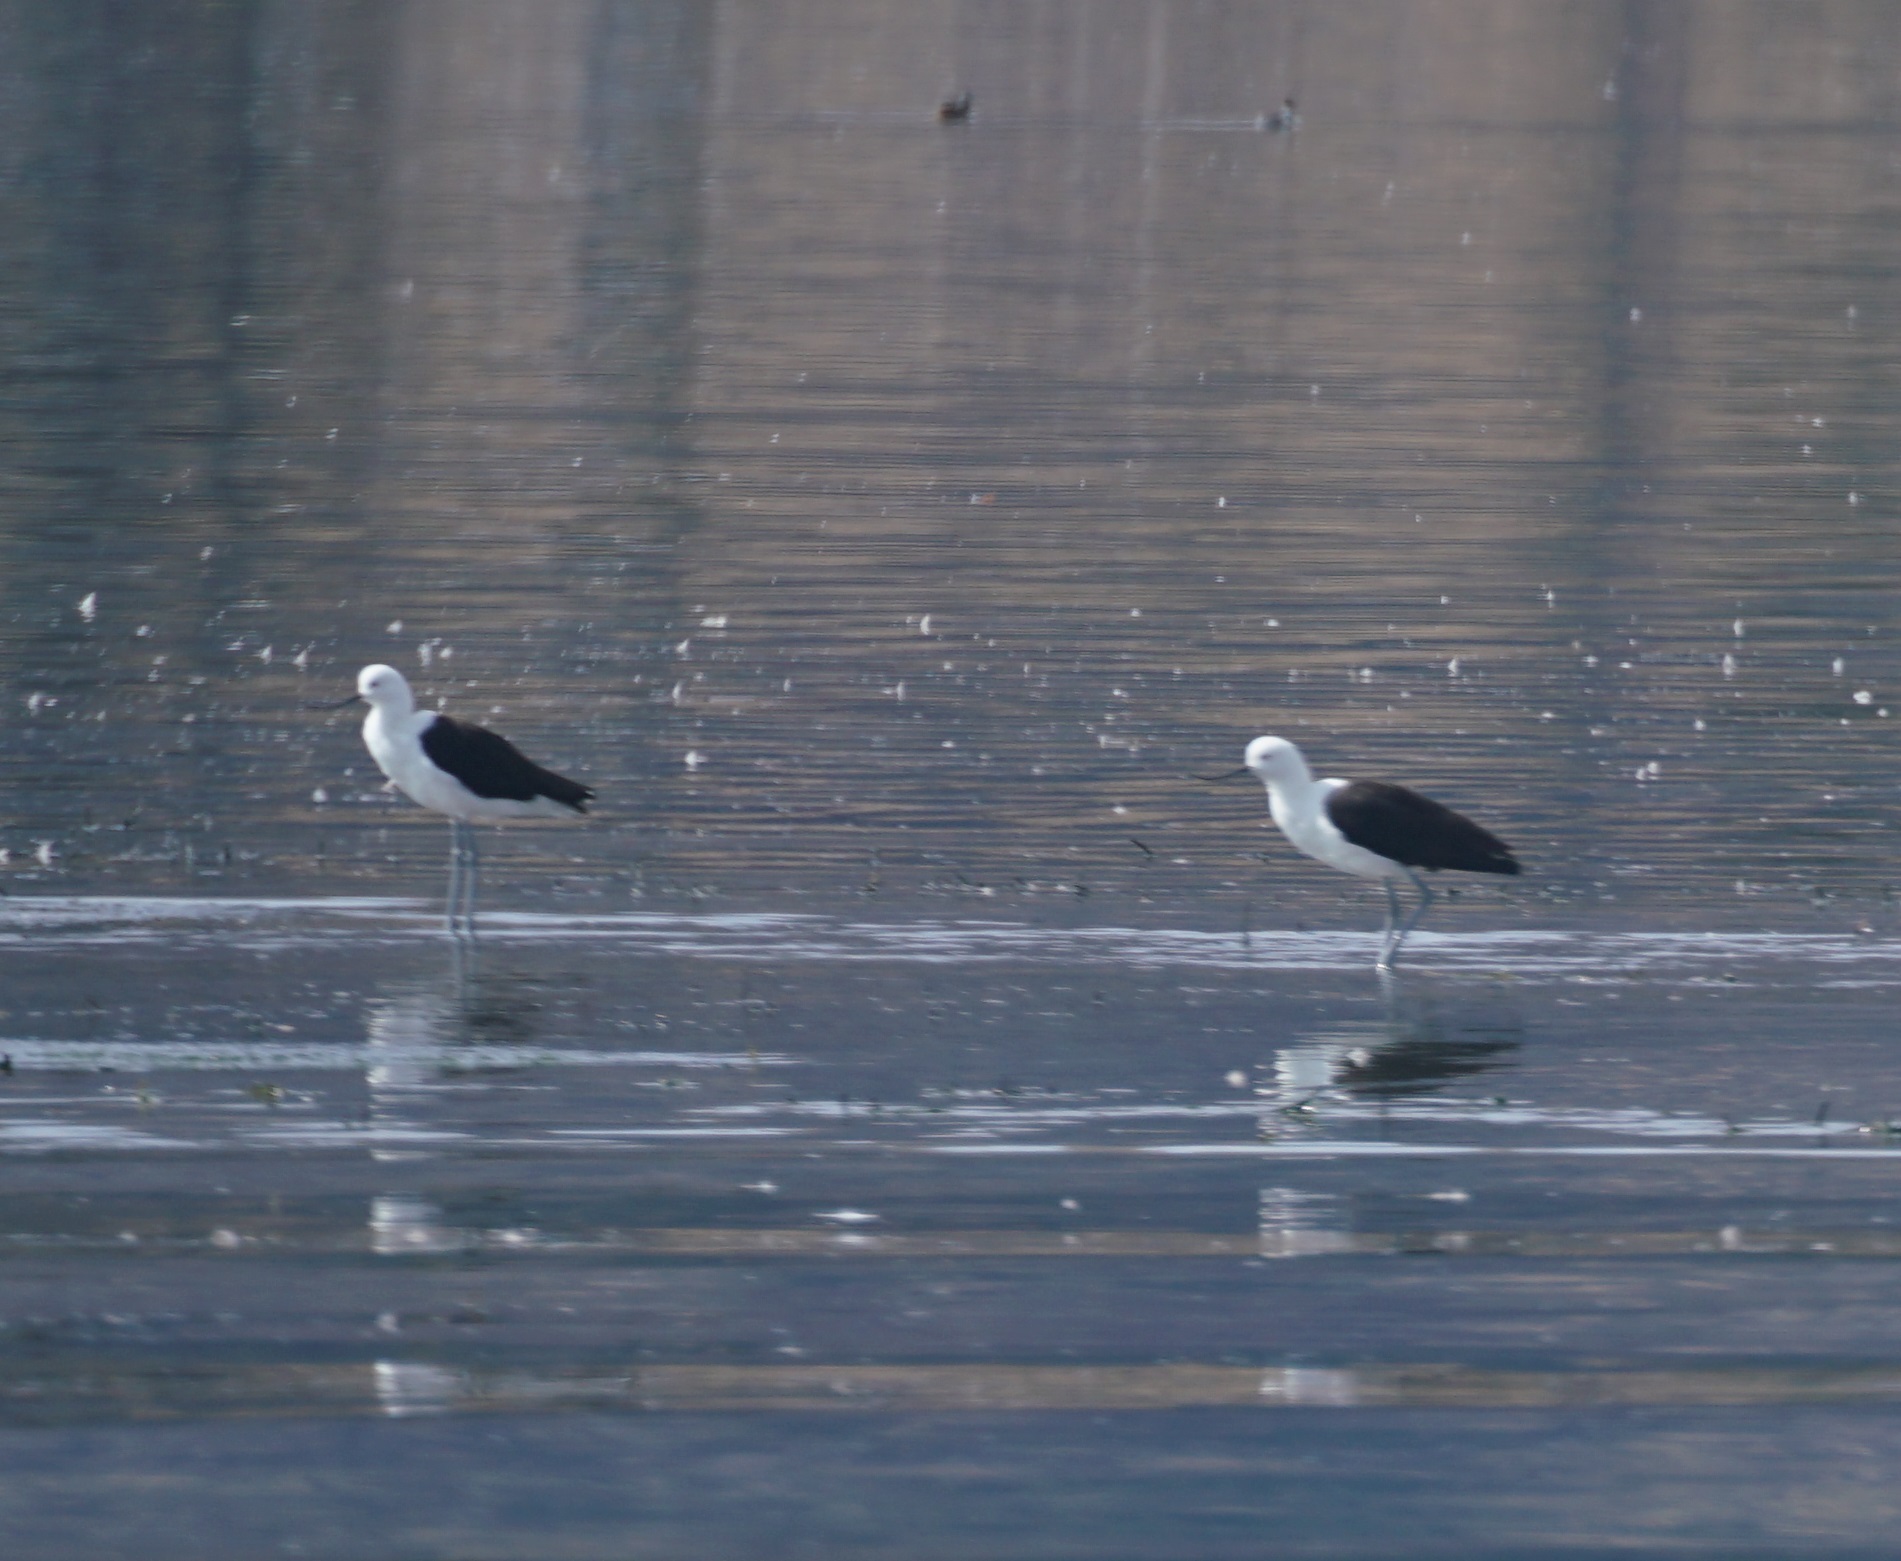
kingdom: Animalia
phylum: Chordata
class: Aves
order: Charadriiformes
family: Recurvirostridae
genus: Recurvirostra
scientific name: Recurvirostra andina
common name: Andean avocet
